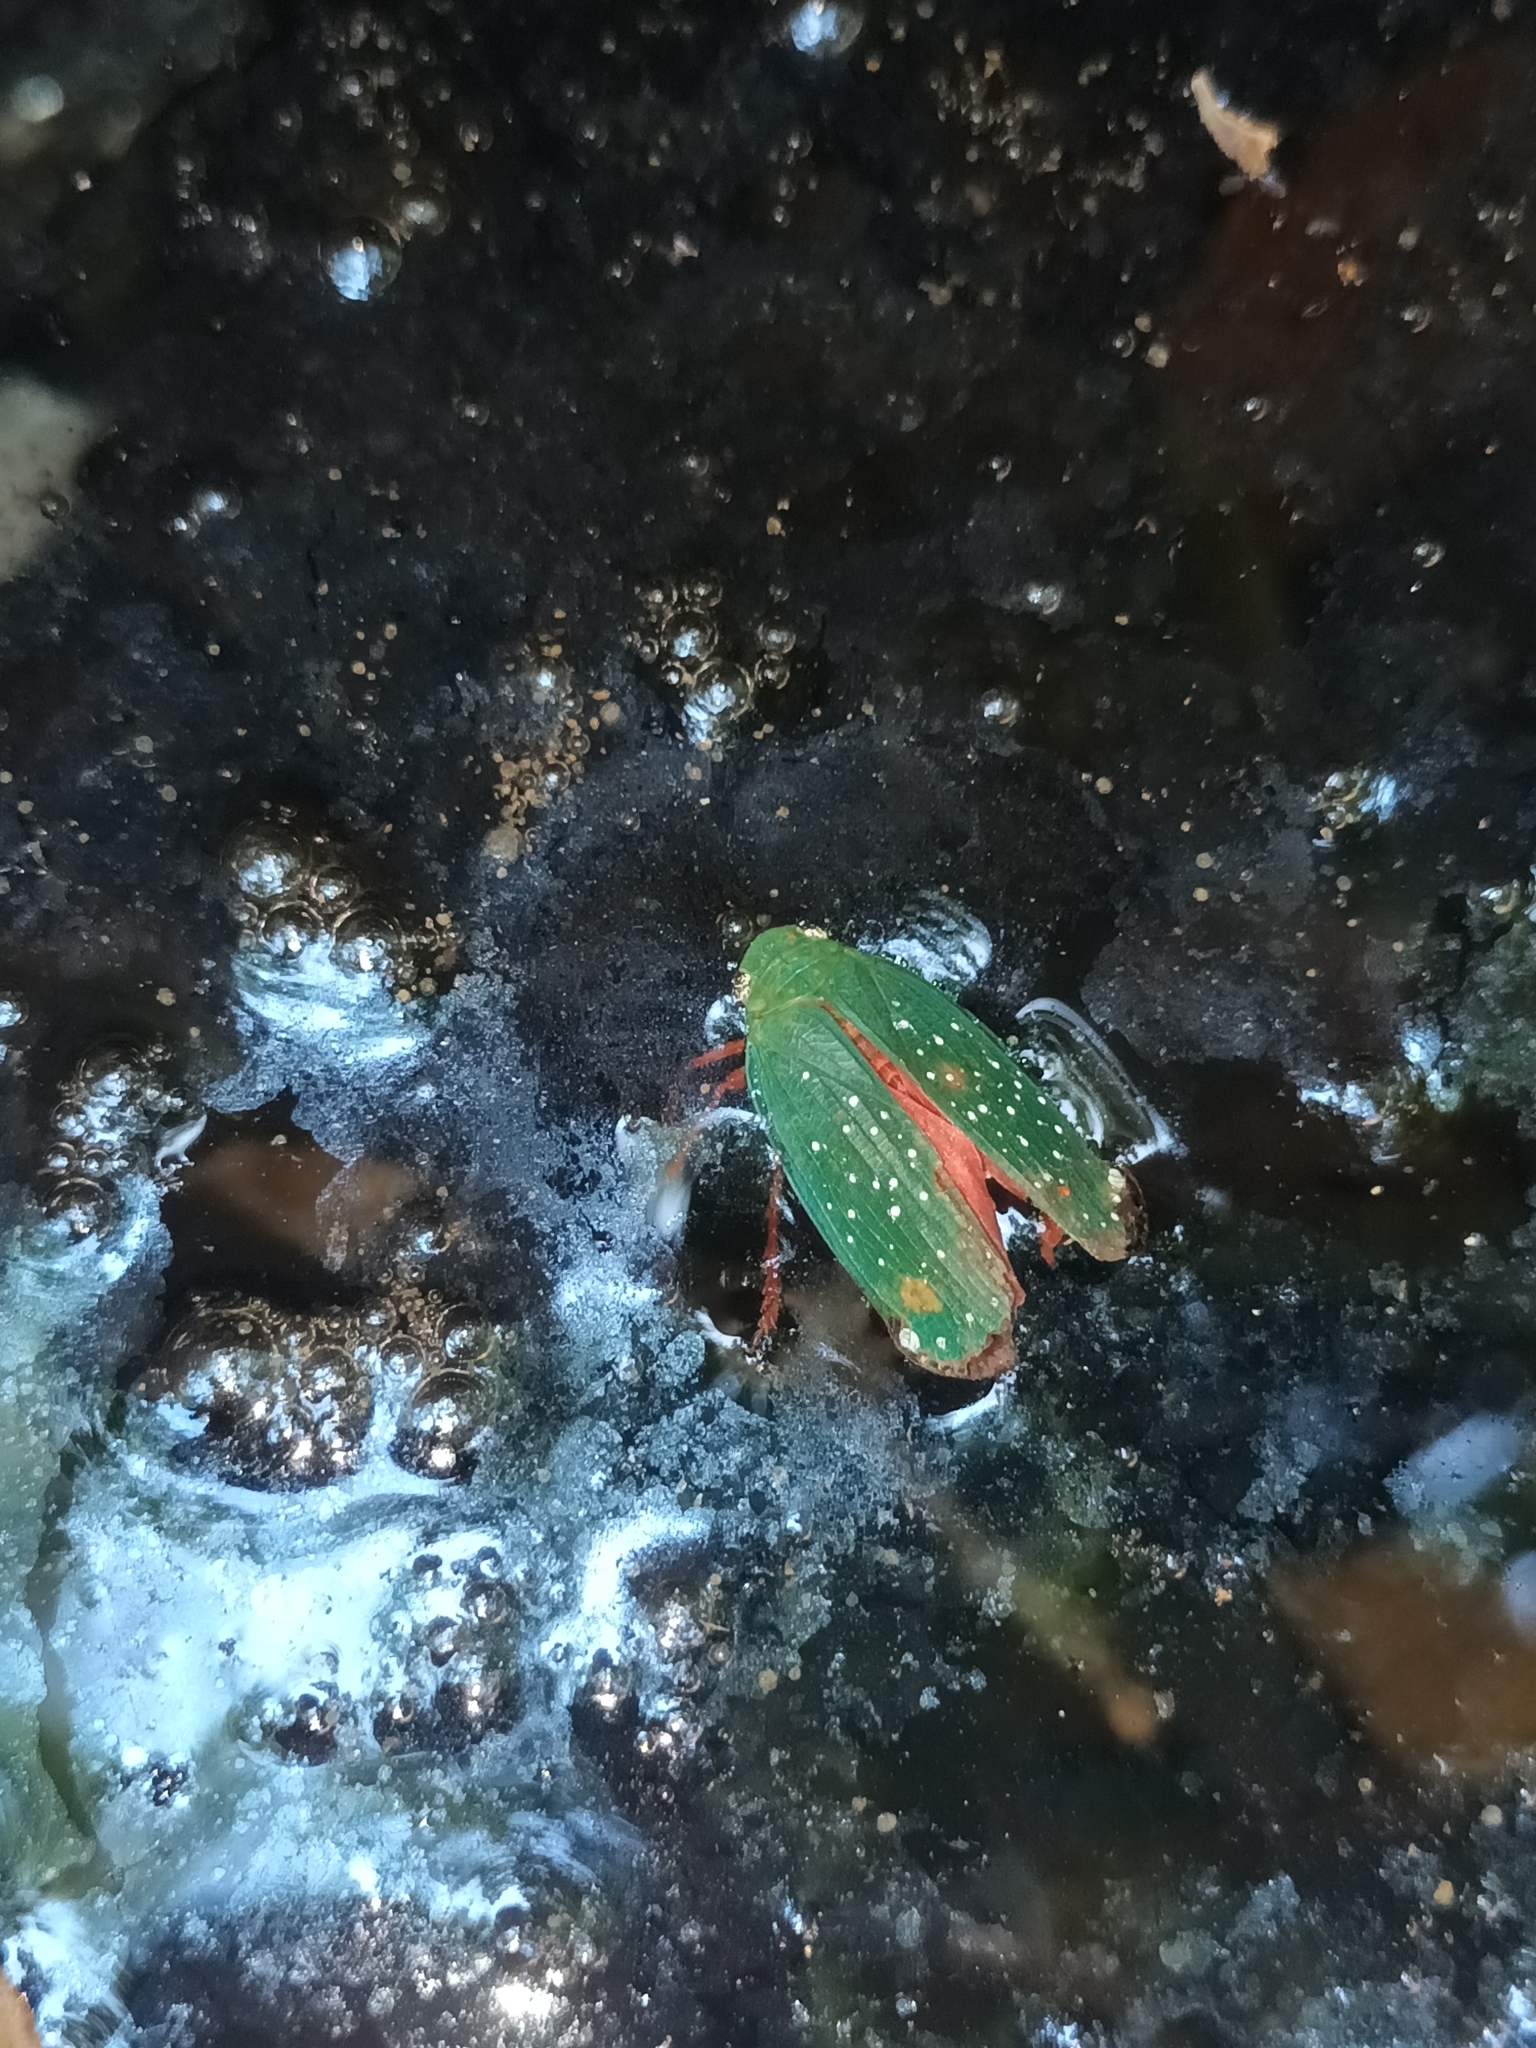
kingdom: Animalia
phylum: Arthropoda
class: Insecta
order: Hemiptera
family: Eurybrachidae
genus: Nilgiribrachys
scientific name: Nilgiribrachys rubroviridis
